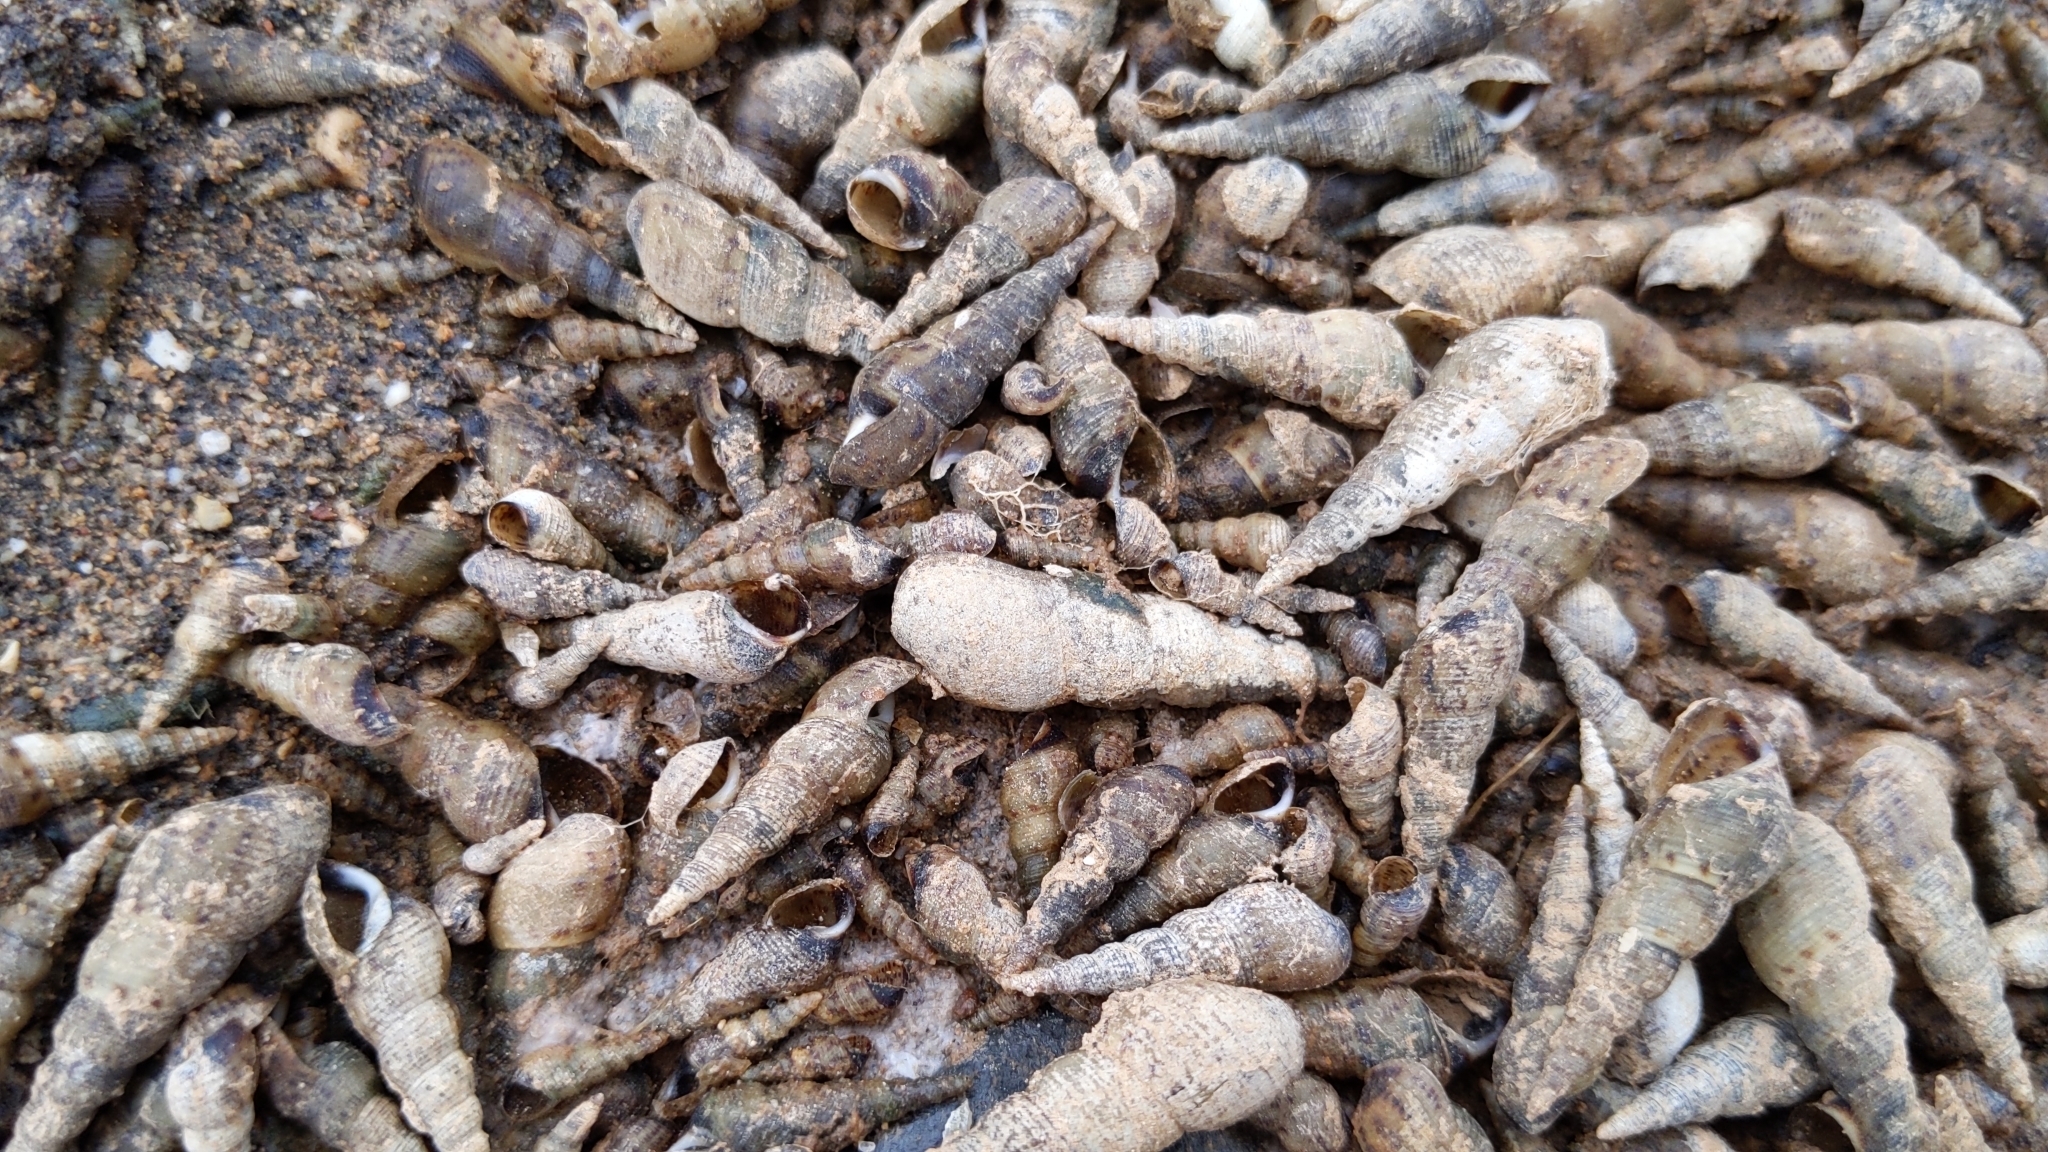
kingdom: Animalia
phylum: Mollusca
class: Gastropoda
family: Thiaridae
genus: Melanoides
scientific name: Melanoides tuberculata
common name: Red-rim melania
